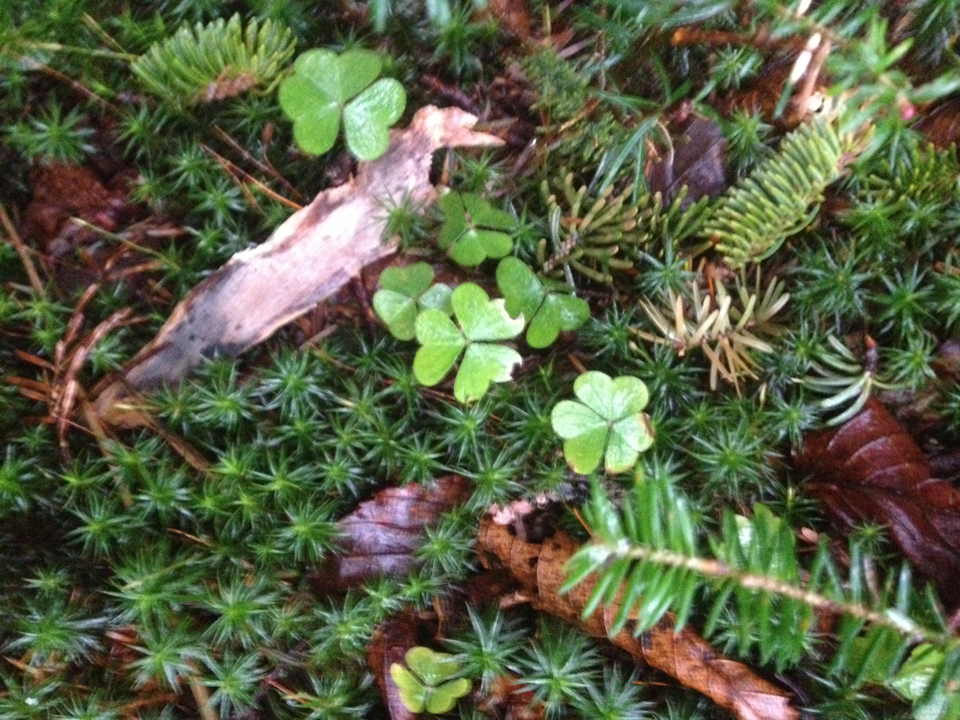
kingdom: Plantae
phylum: Tracheophyta
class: Magnoliopsida
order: Oxalidales
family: Oxalidaceae
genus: Oxalis
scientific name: Oxalis montana
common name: American wood-sorrel
